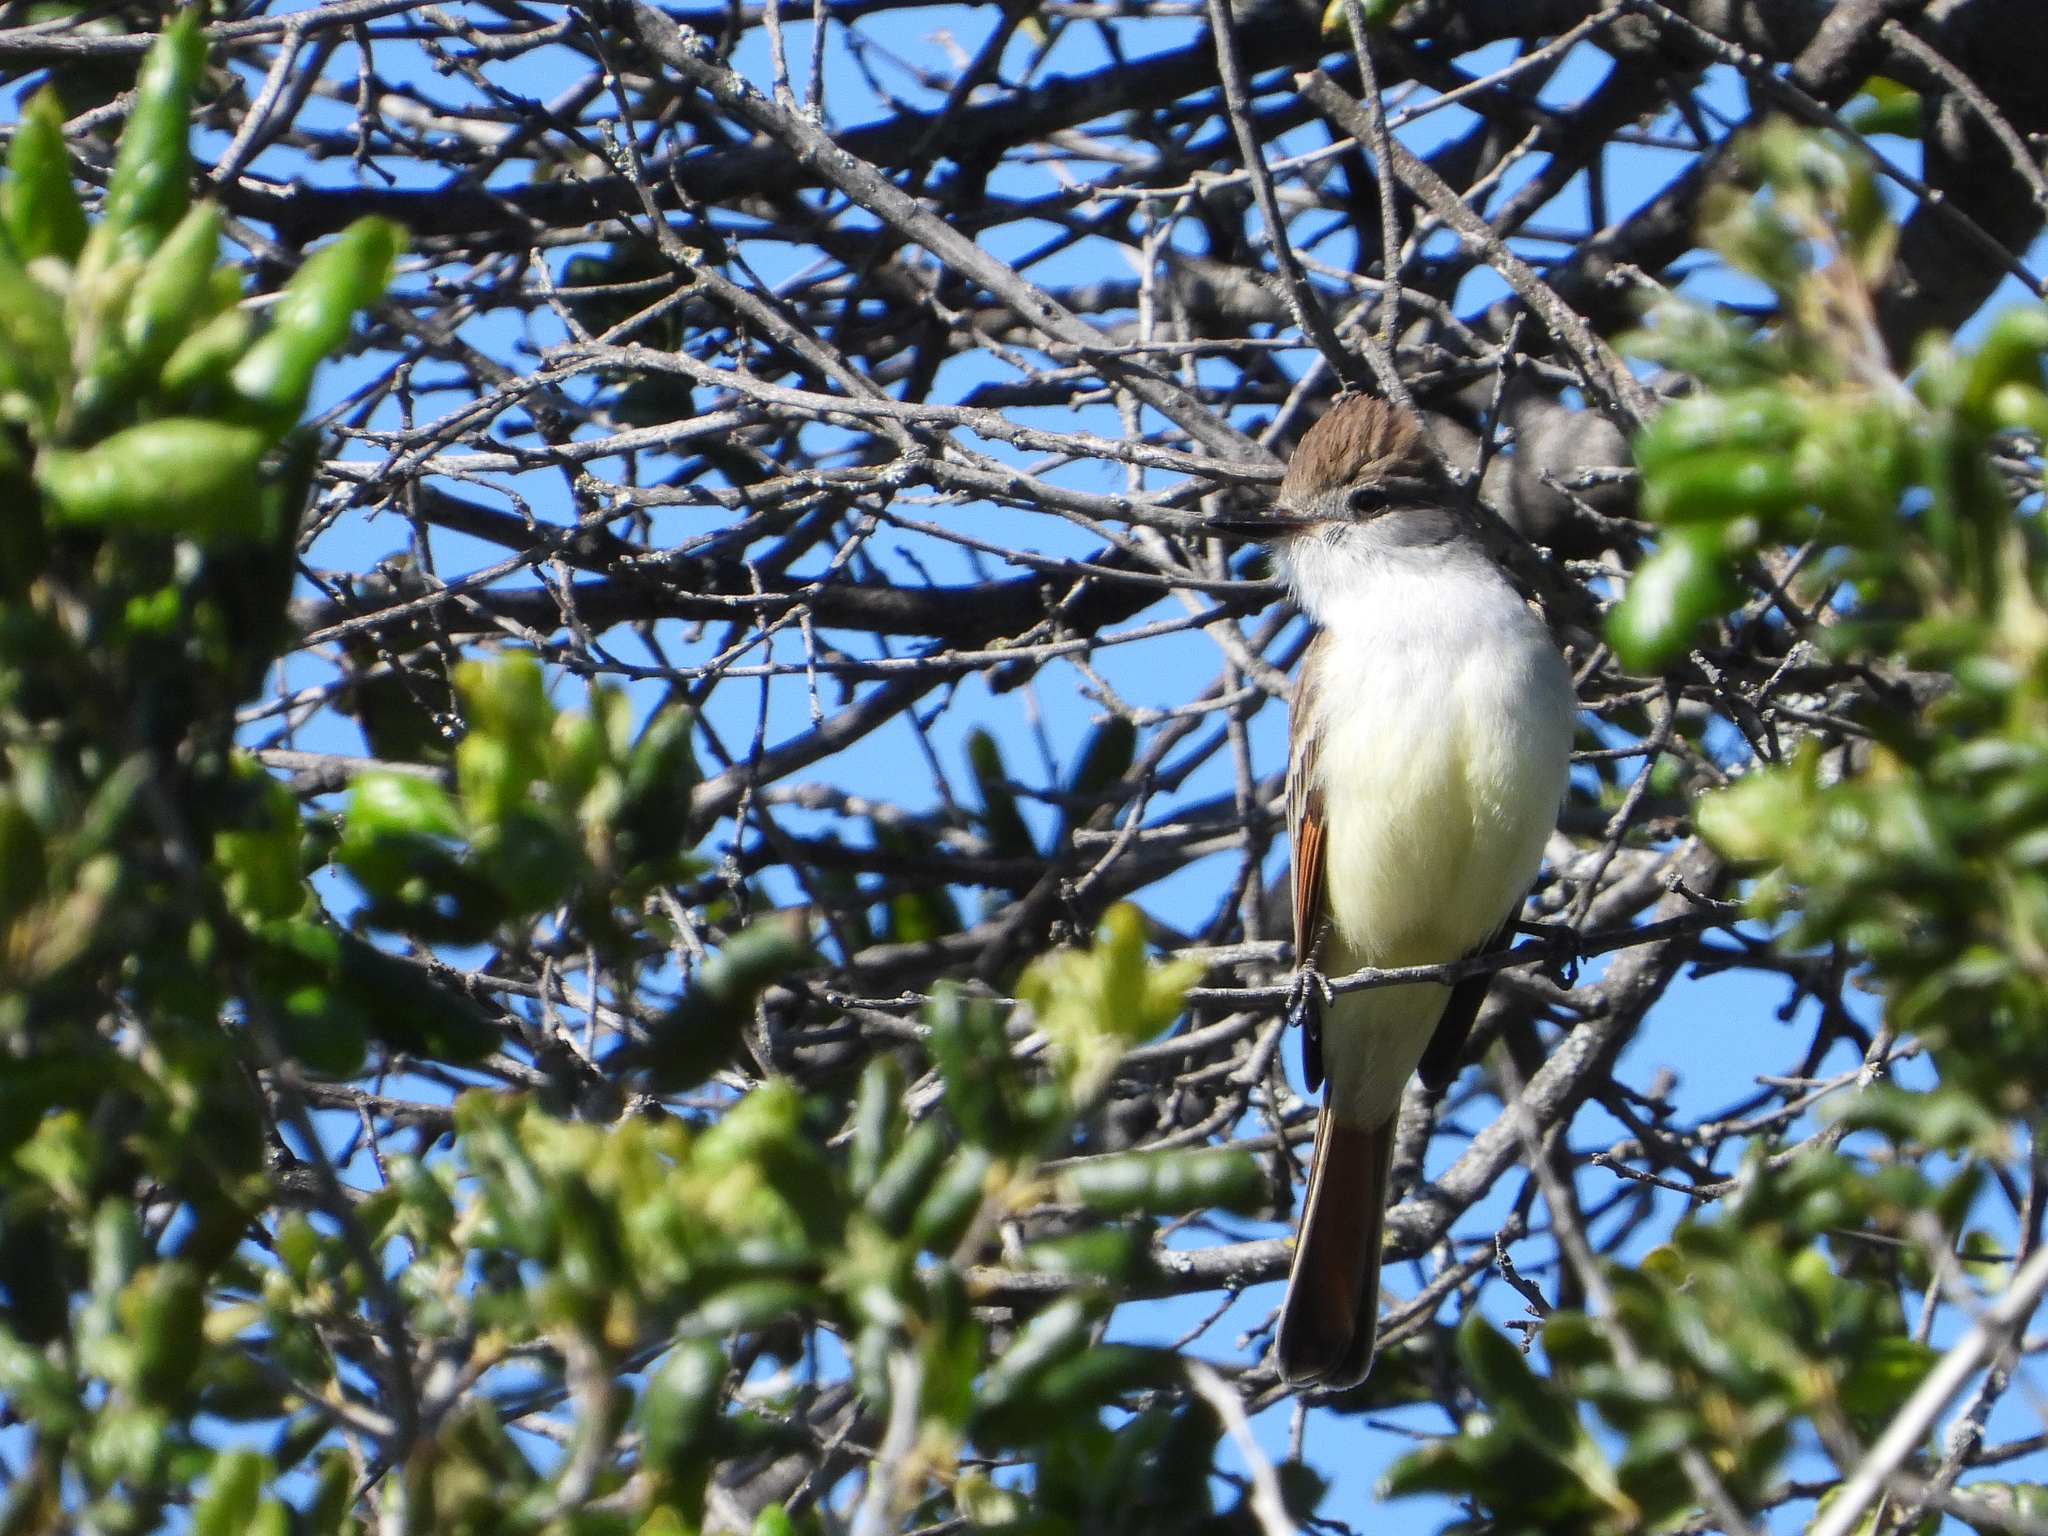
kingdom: Animalia
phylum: Chordata
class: Aves
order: Passeriformes
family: Tyrannidae
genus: Myiarchus
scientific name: Myiarchus cinerascens
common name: Ash-throated flycatcher
